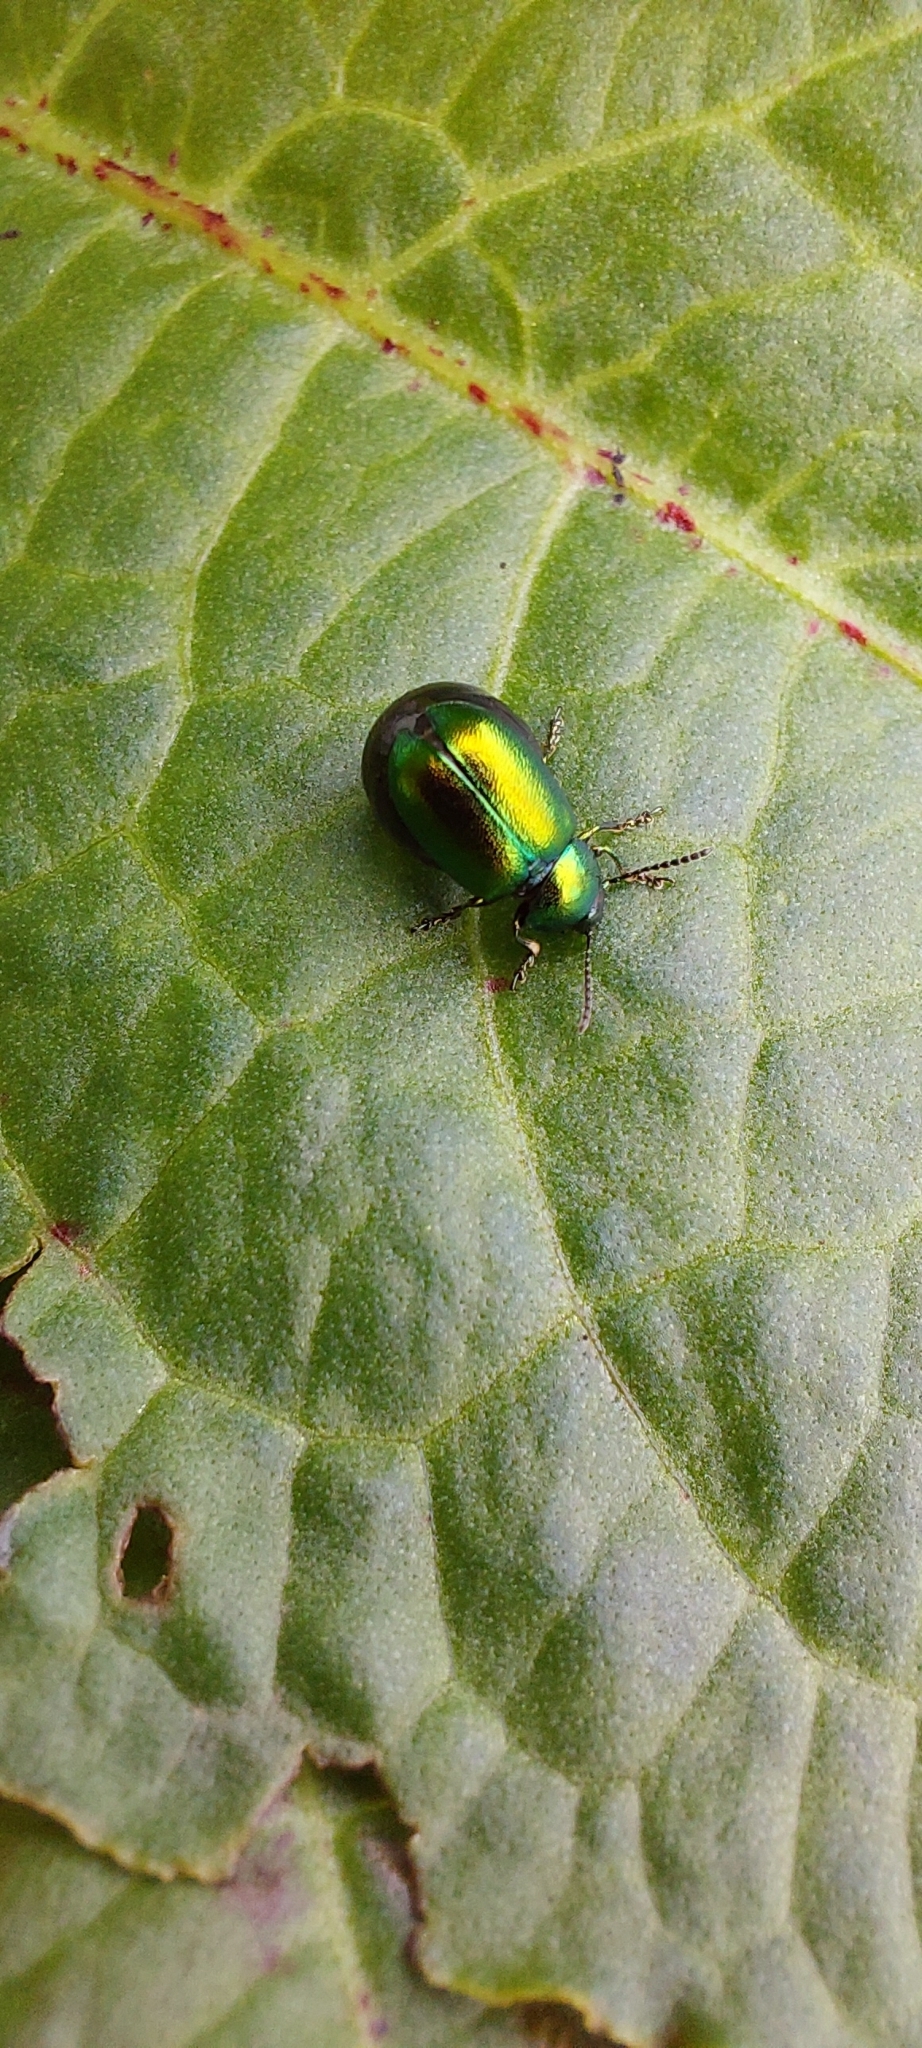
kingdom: Animalia
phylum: Arthropoda
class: Insecta
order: Coleoptera
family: Chrysomelidae
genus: Gastrophysa
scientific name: Gastrophysa viridula
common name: Green dock beetle
